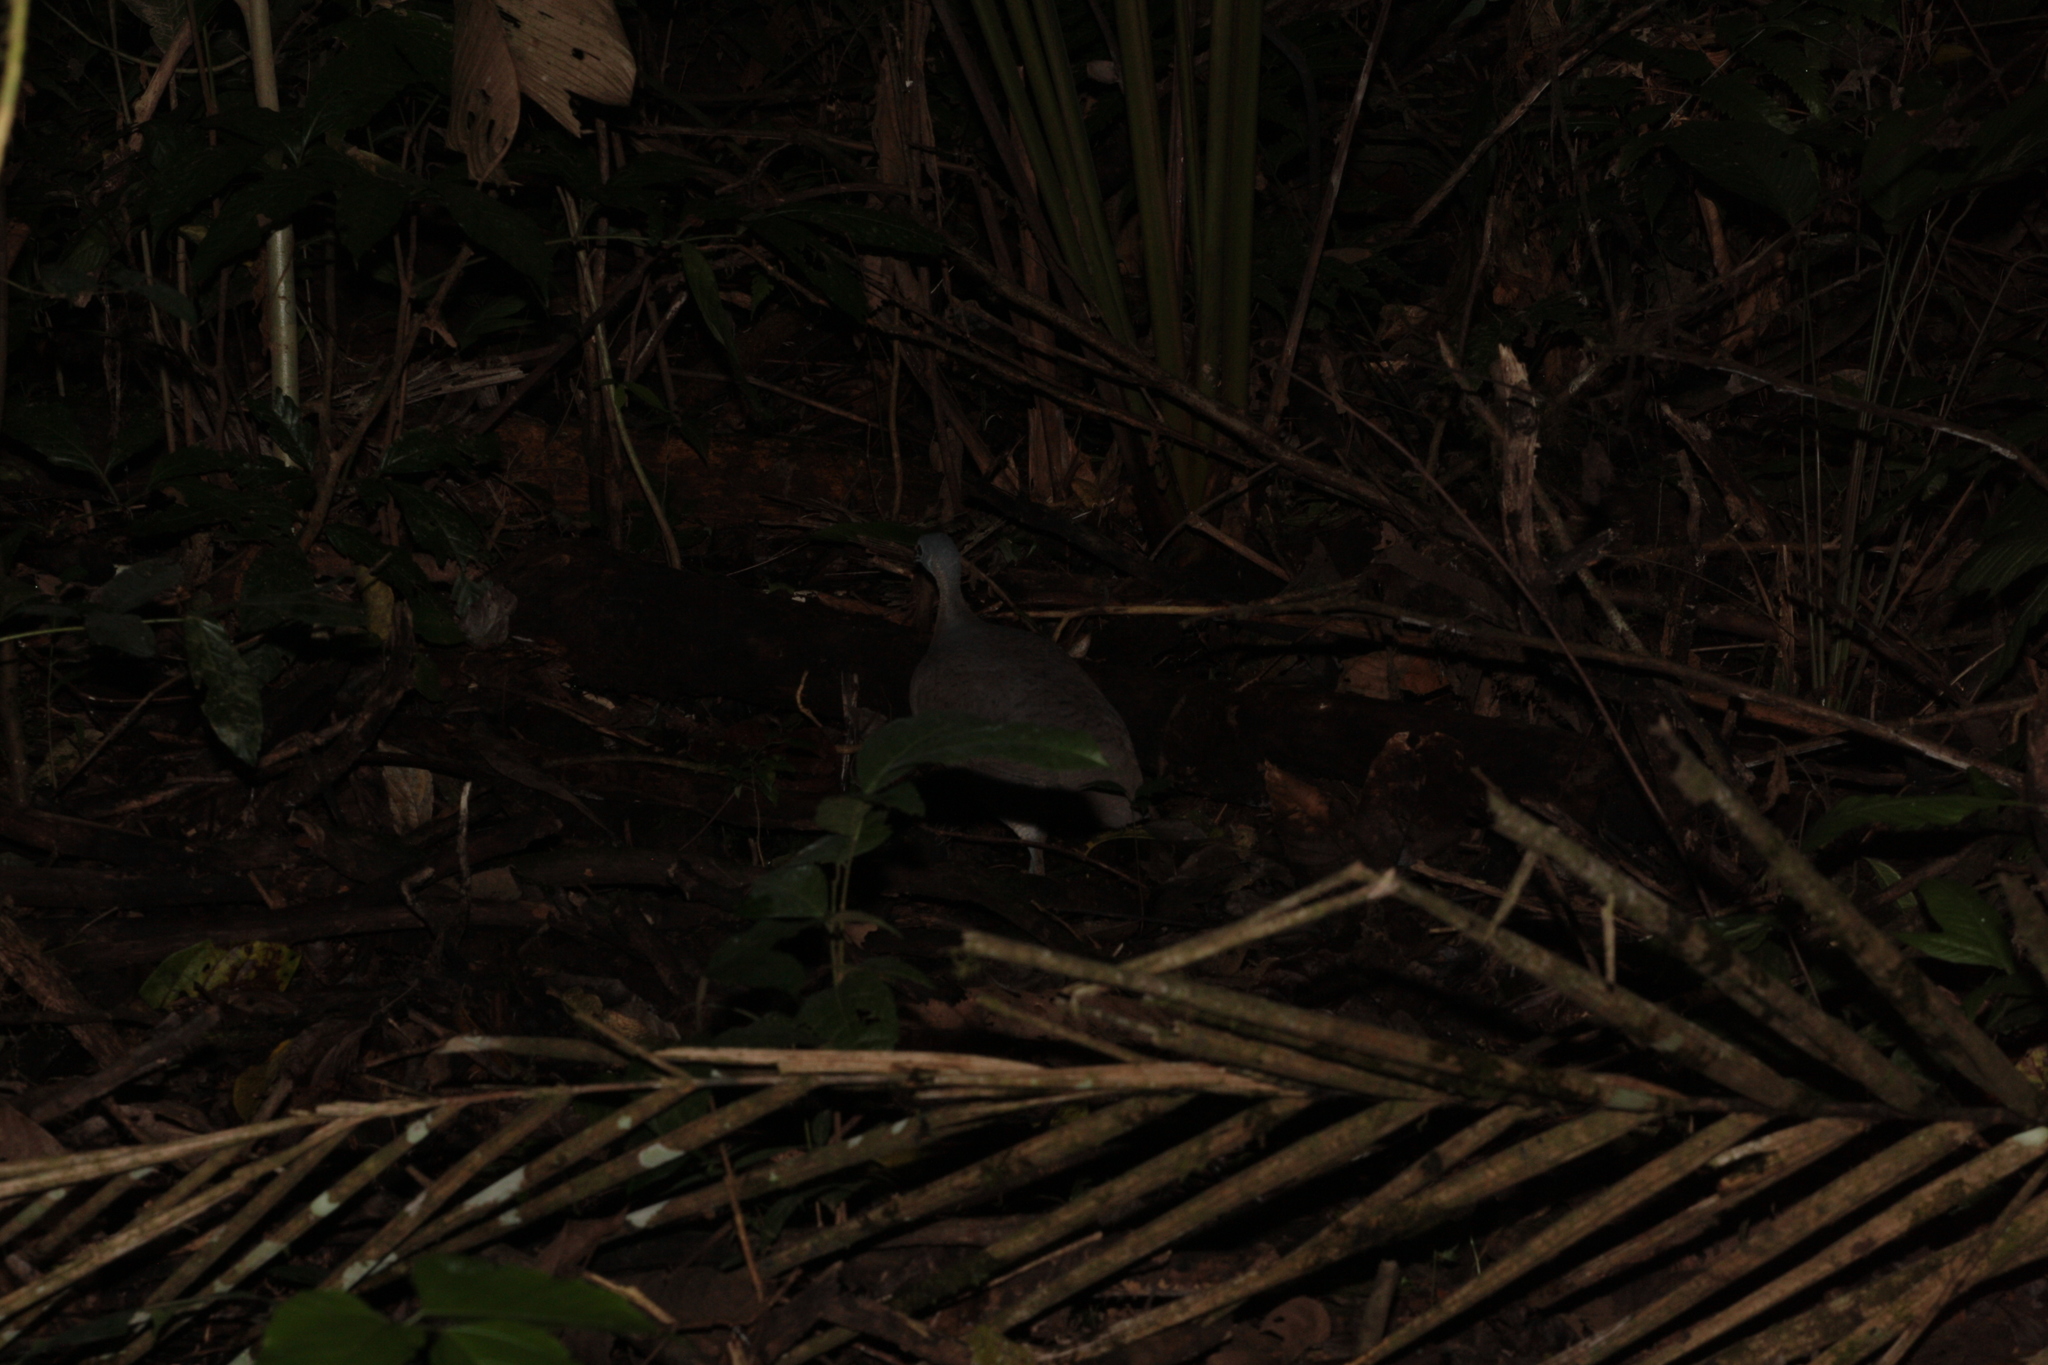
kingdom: Animalia
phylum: Chordata
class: Aves
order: Tinamiformes
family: Tinamidae
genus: Tinamus
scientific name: Tinamus major
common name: Great tinamou
